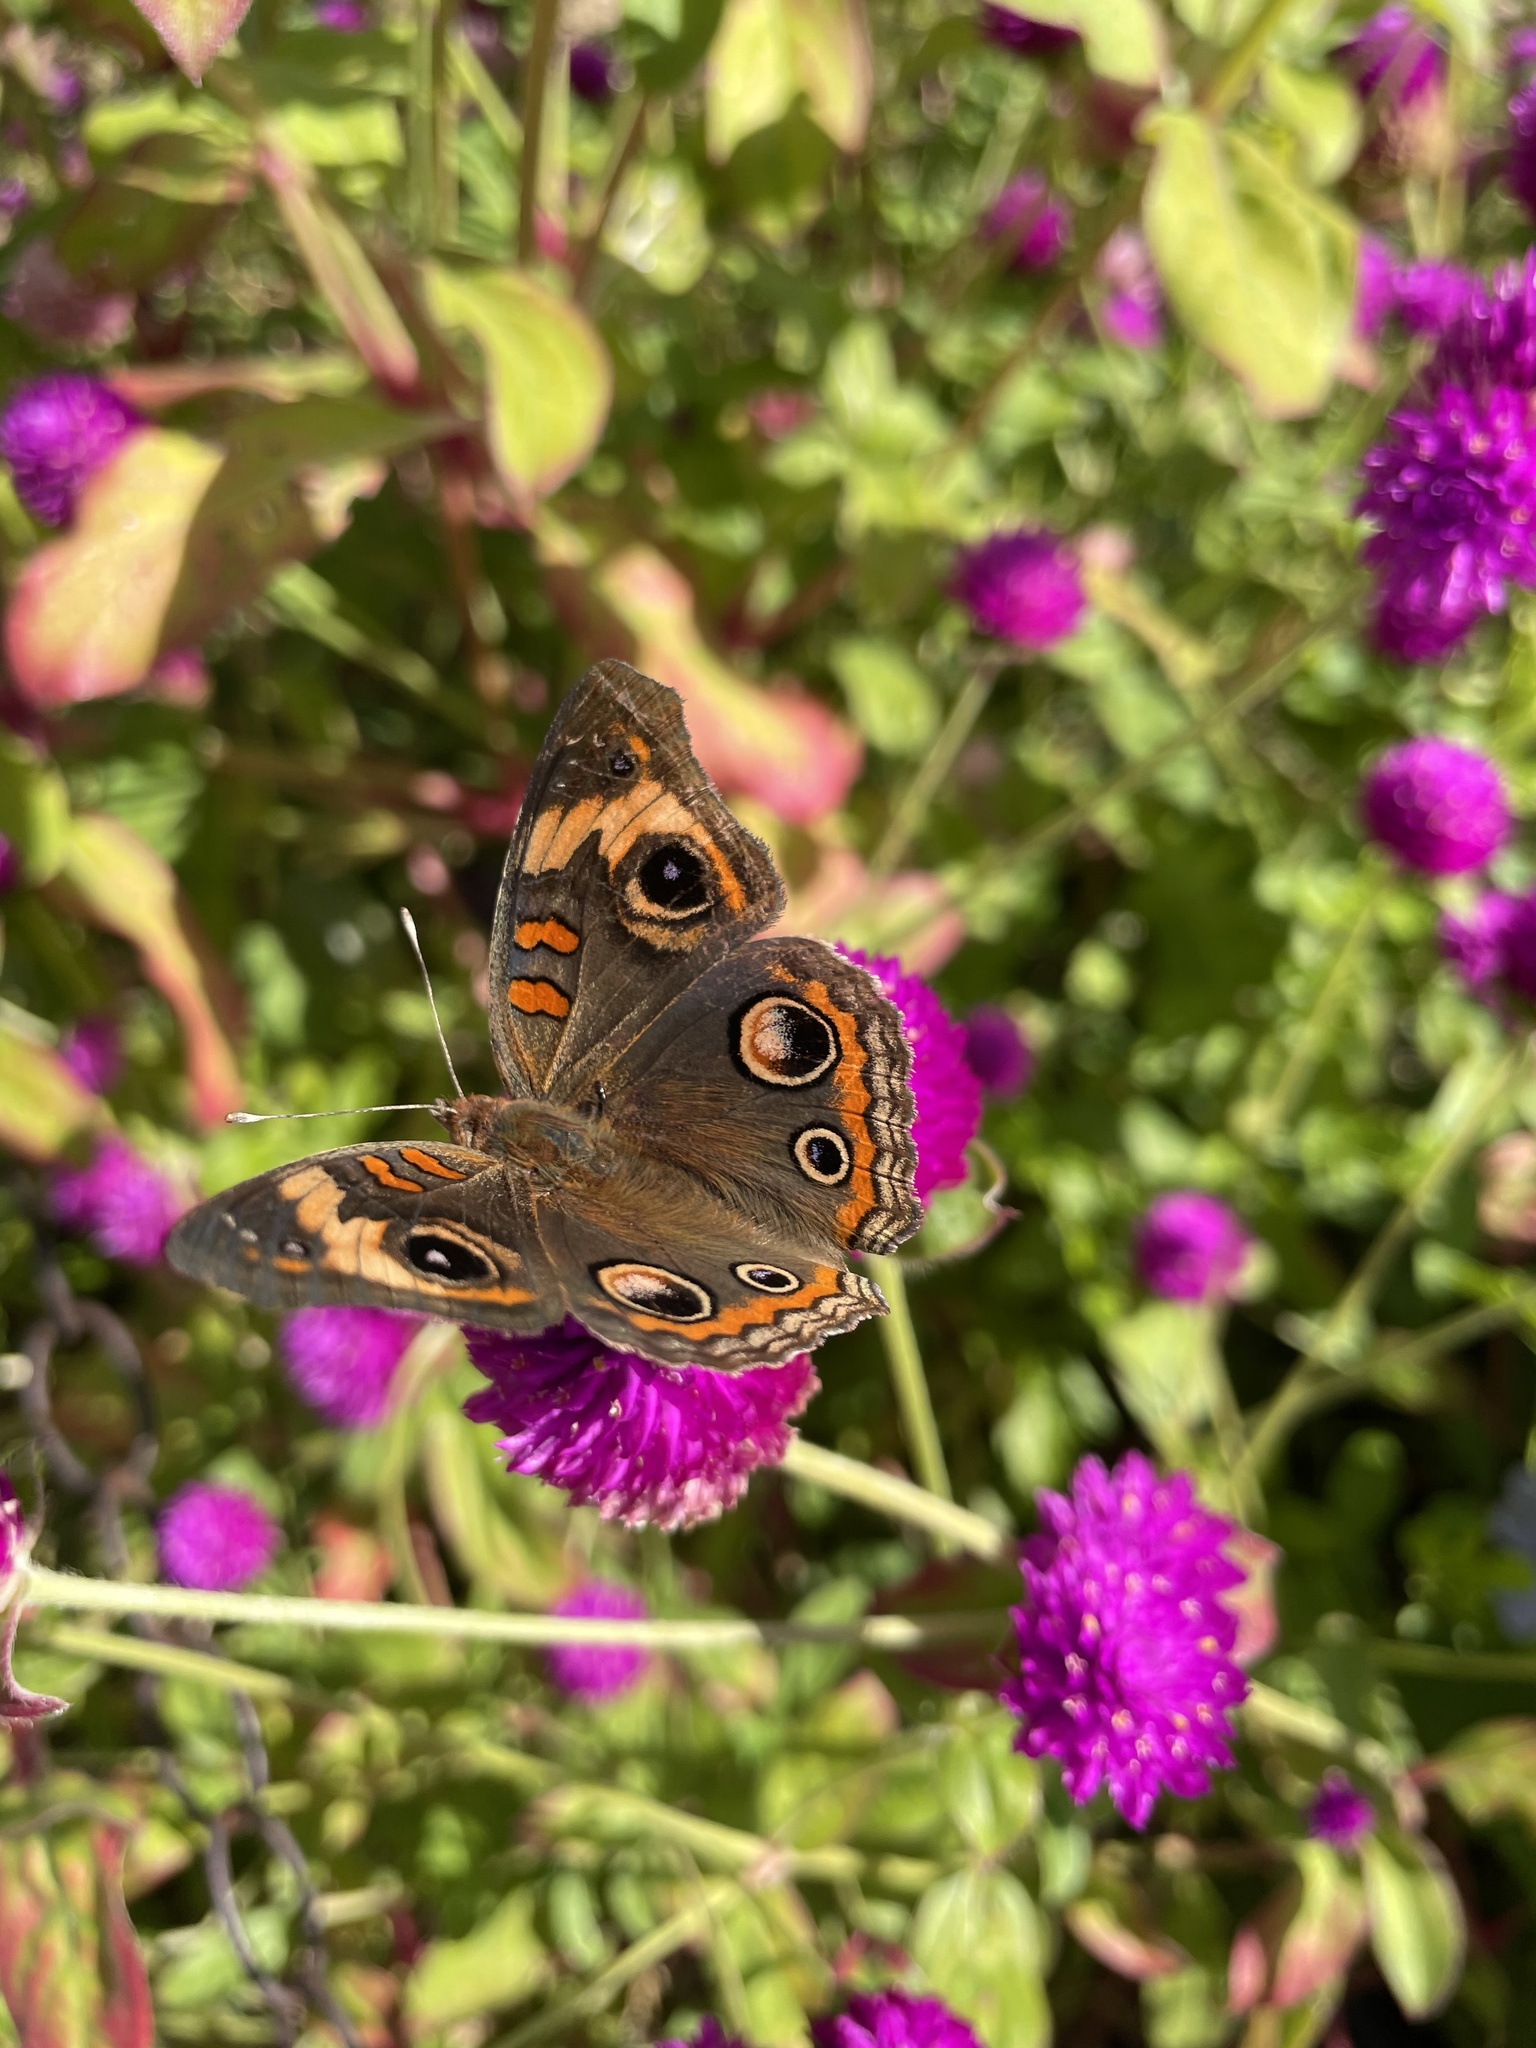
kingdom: Animalia
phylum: Arthropoda
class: Insecta
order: Lepidoptera
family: Nymphalidae
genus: Junonia
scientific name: Junonia coenia
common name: Common buckeye
